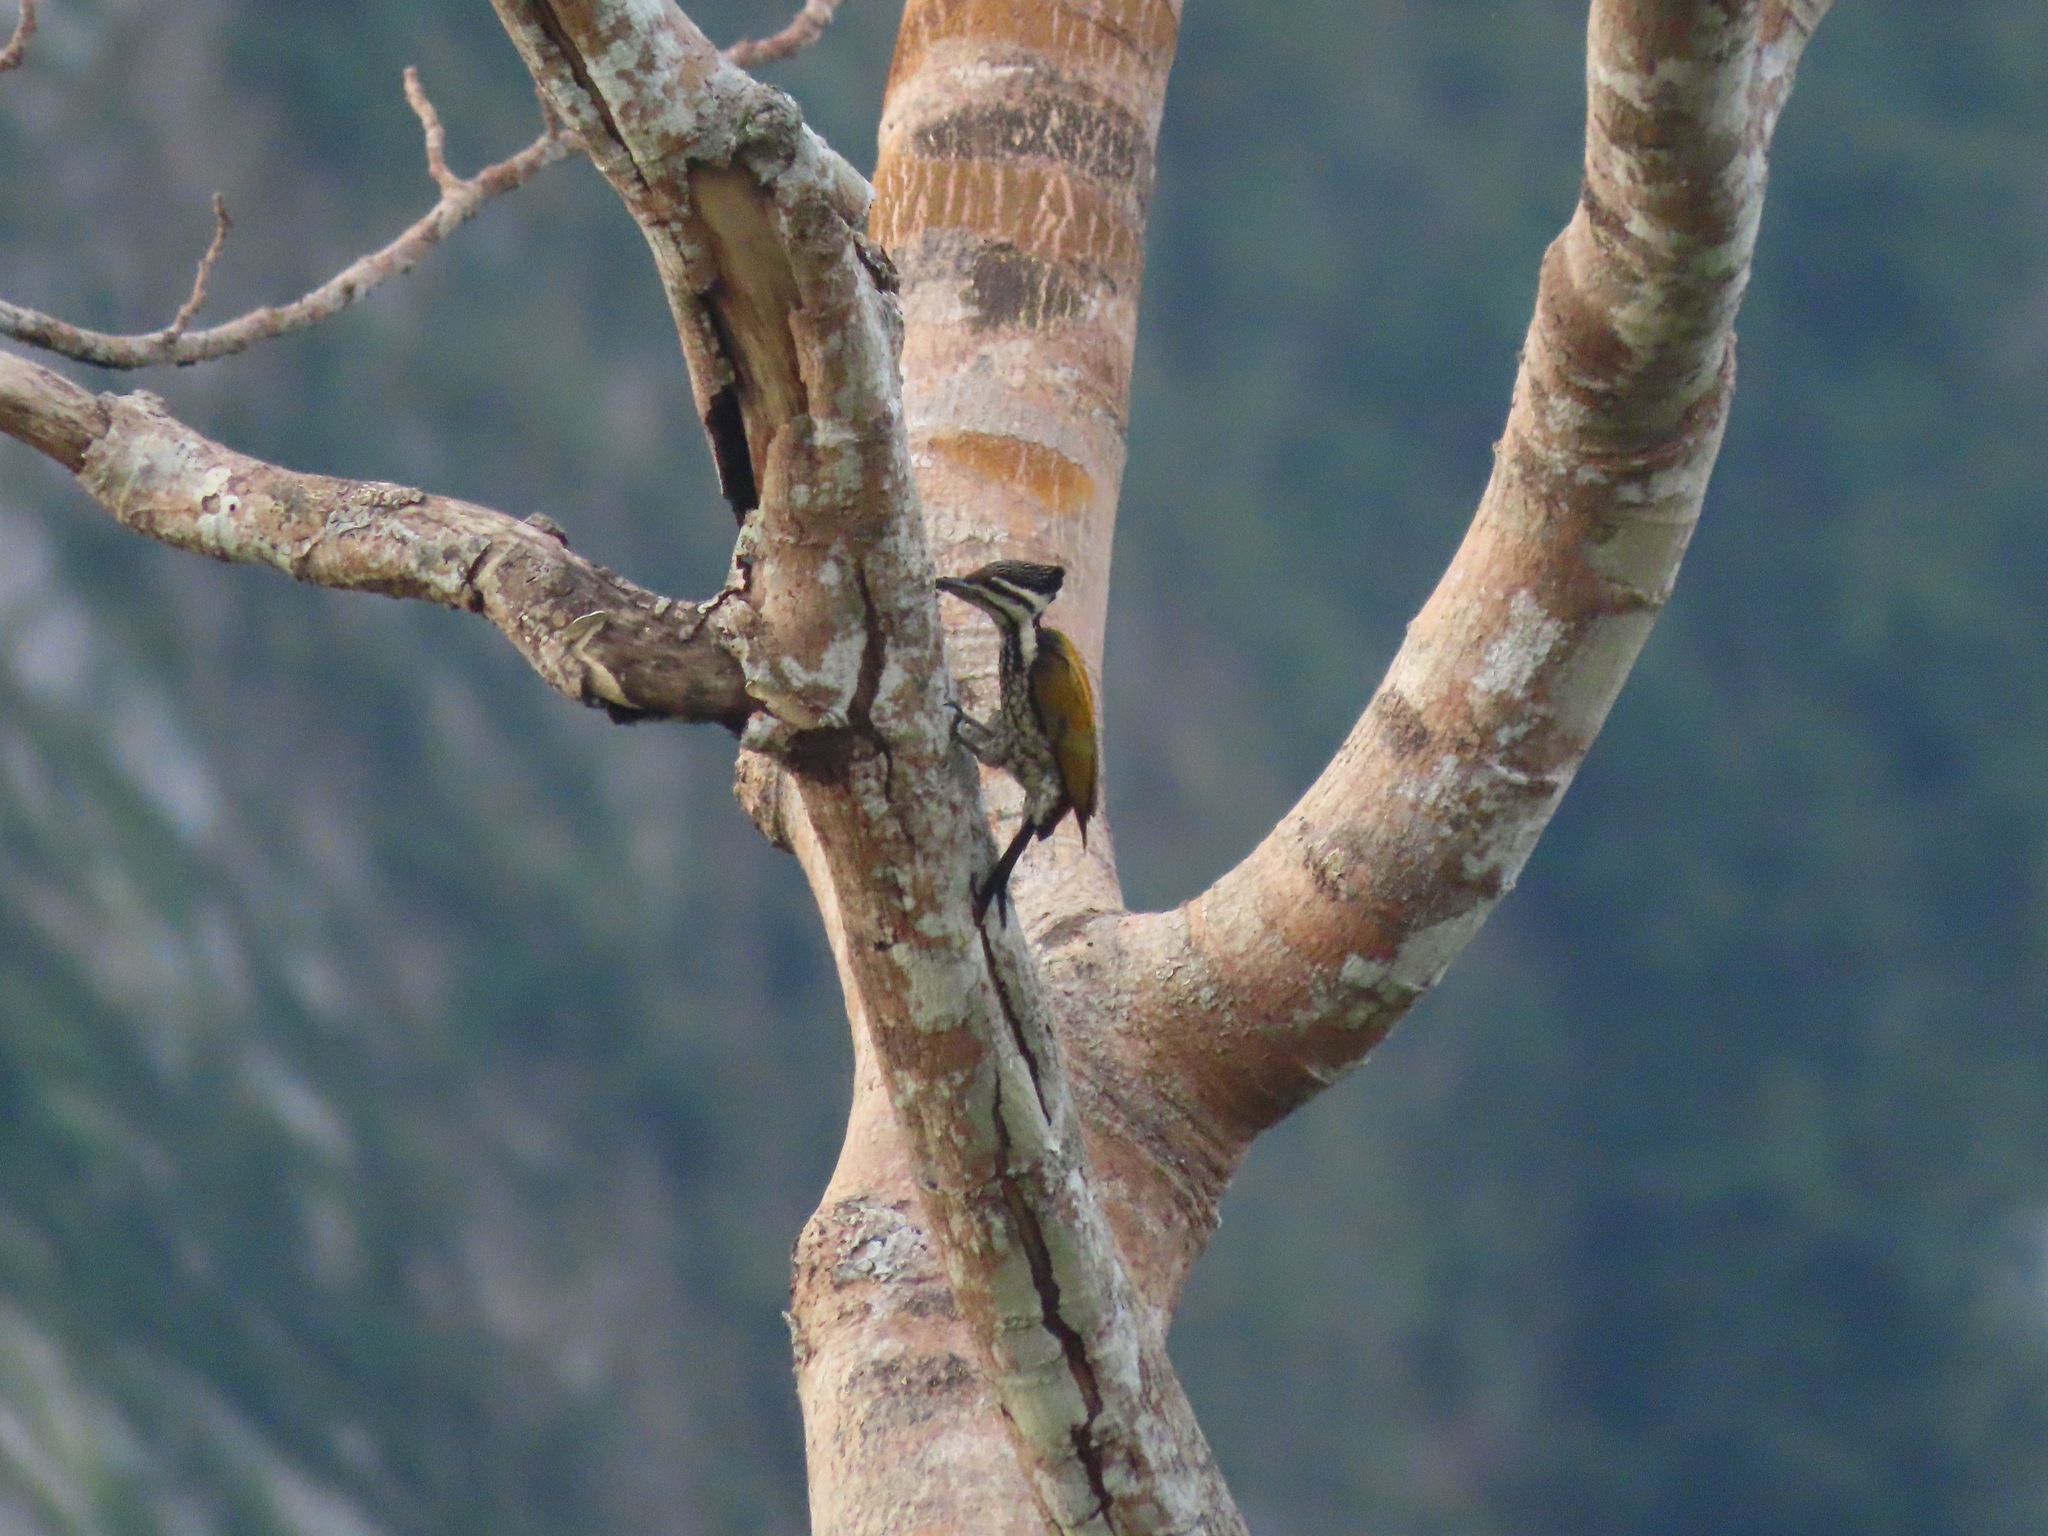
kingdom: Animalia
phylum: Chordata
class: Aves
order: Piciformes
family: Picidae
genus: Dinopium
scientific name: Dinopium javanense
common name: Common flameback
